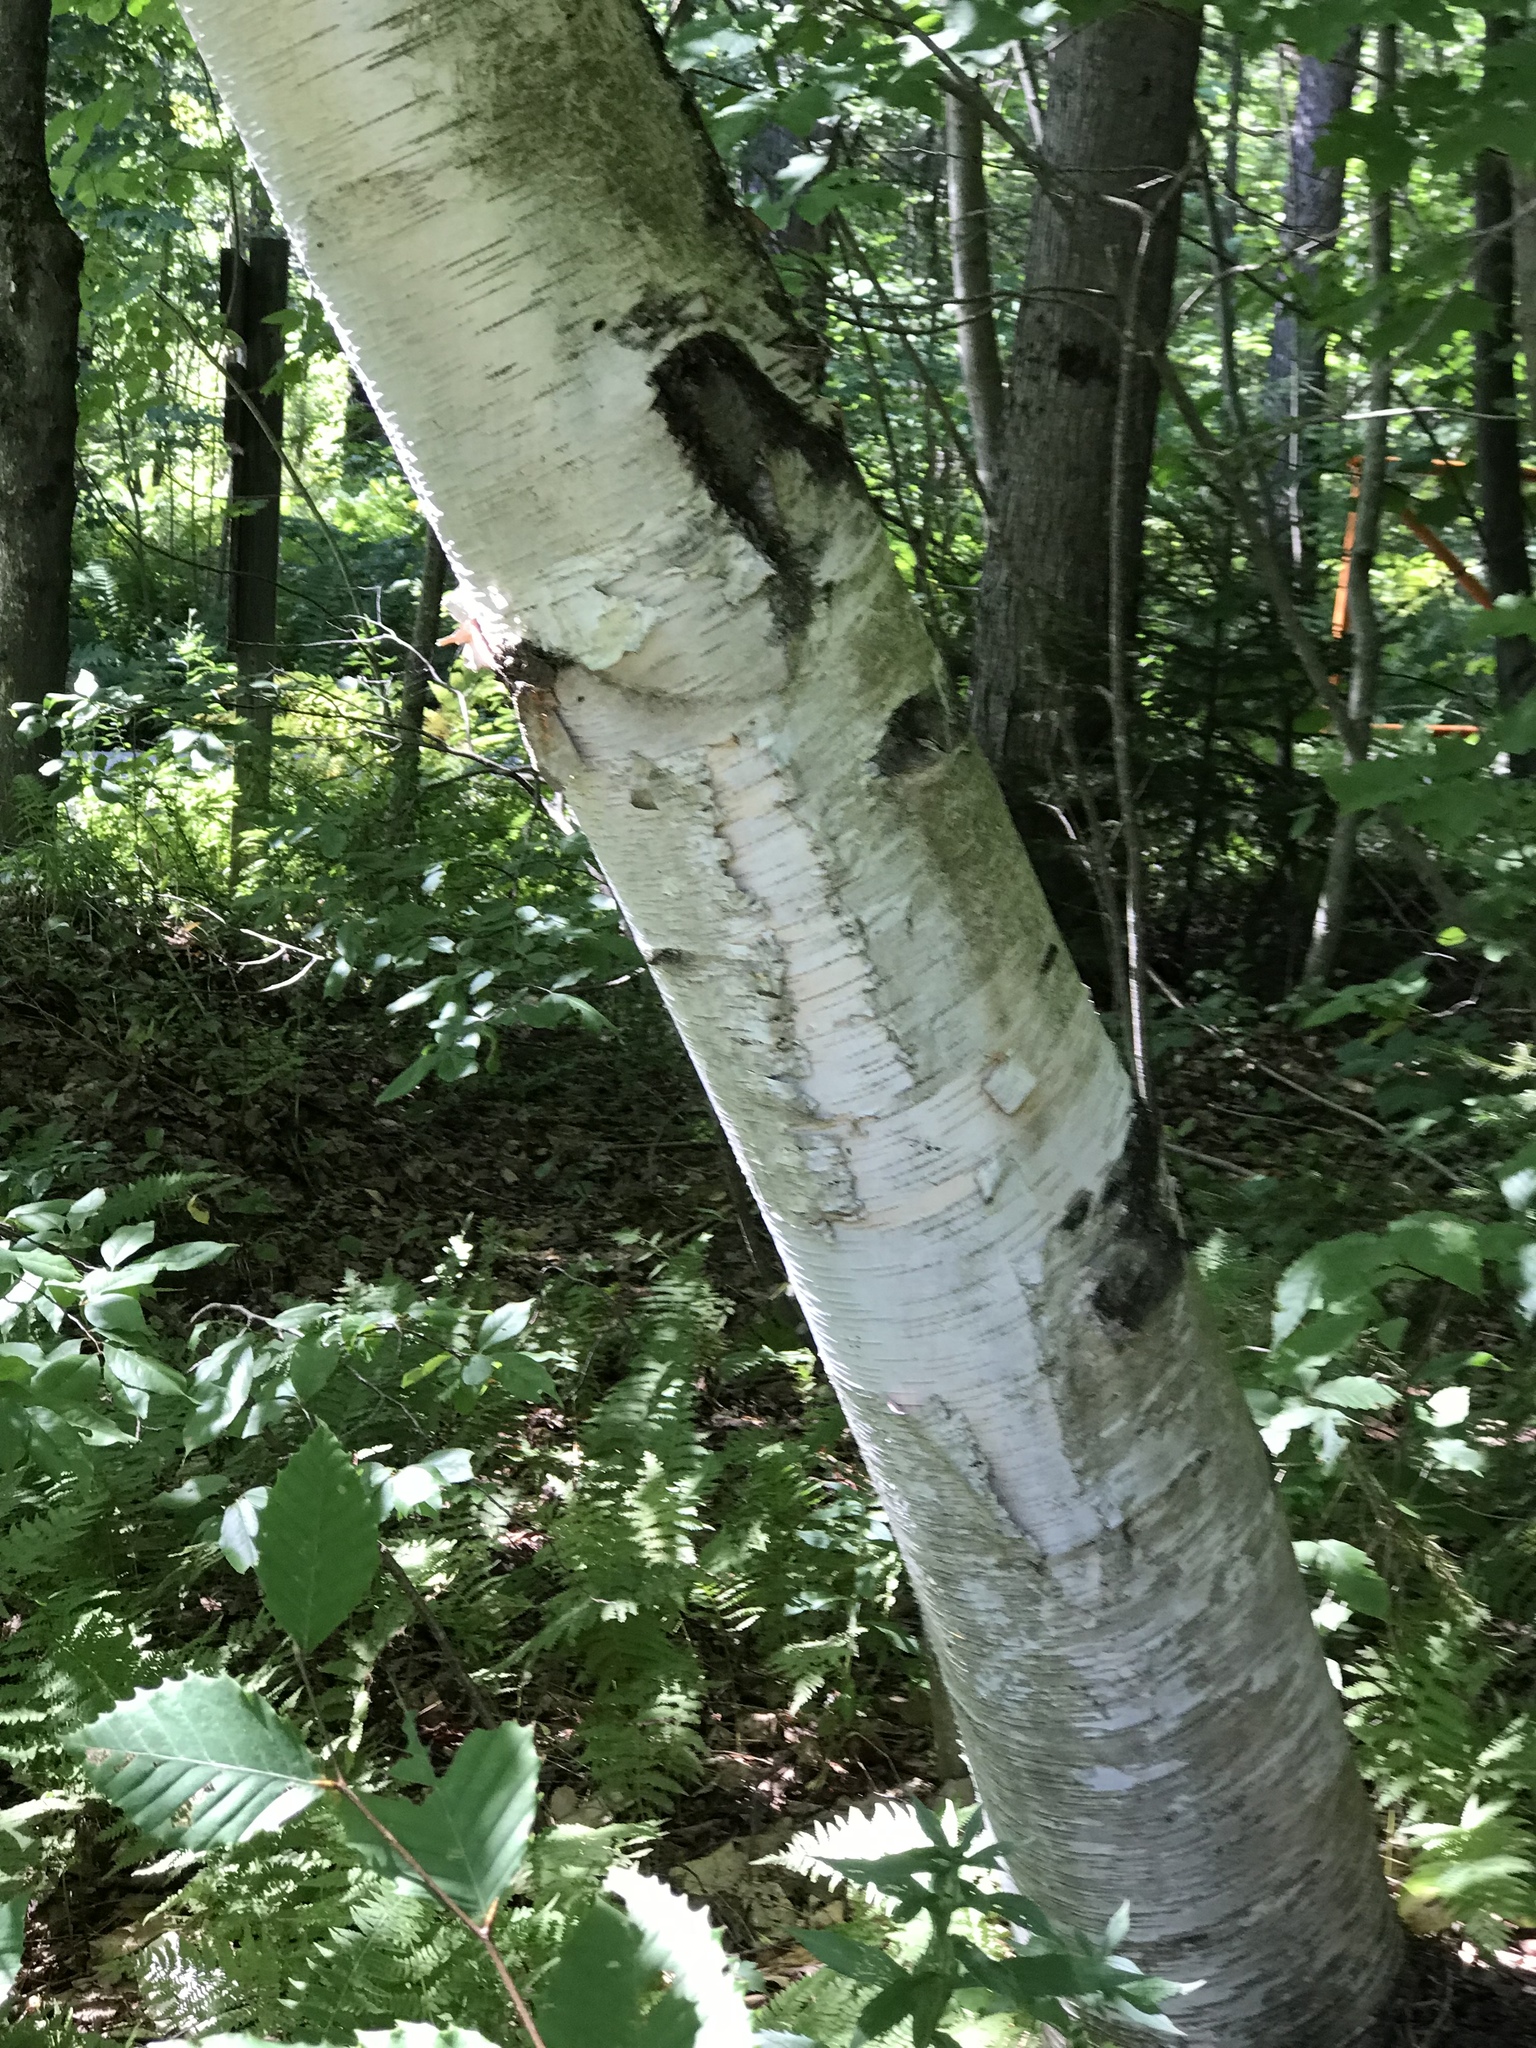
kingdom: Plantae
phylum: Tracheophyta
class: Magnoliopsida
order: Fagales
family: Betulaceae
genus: Betula
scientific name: Betula papyrifera
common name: Paper birch
